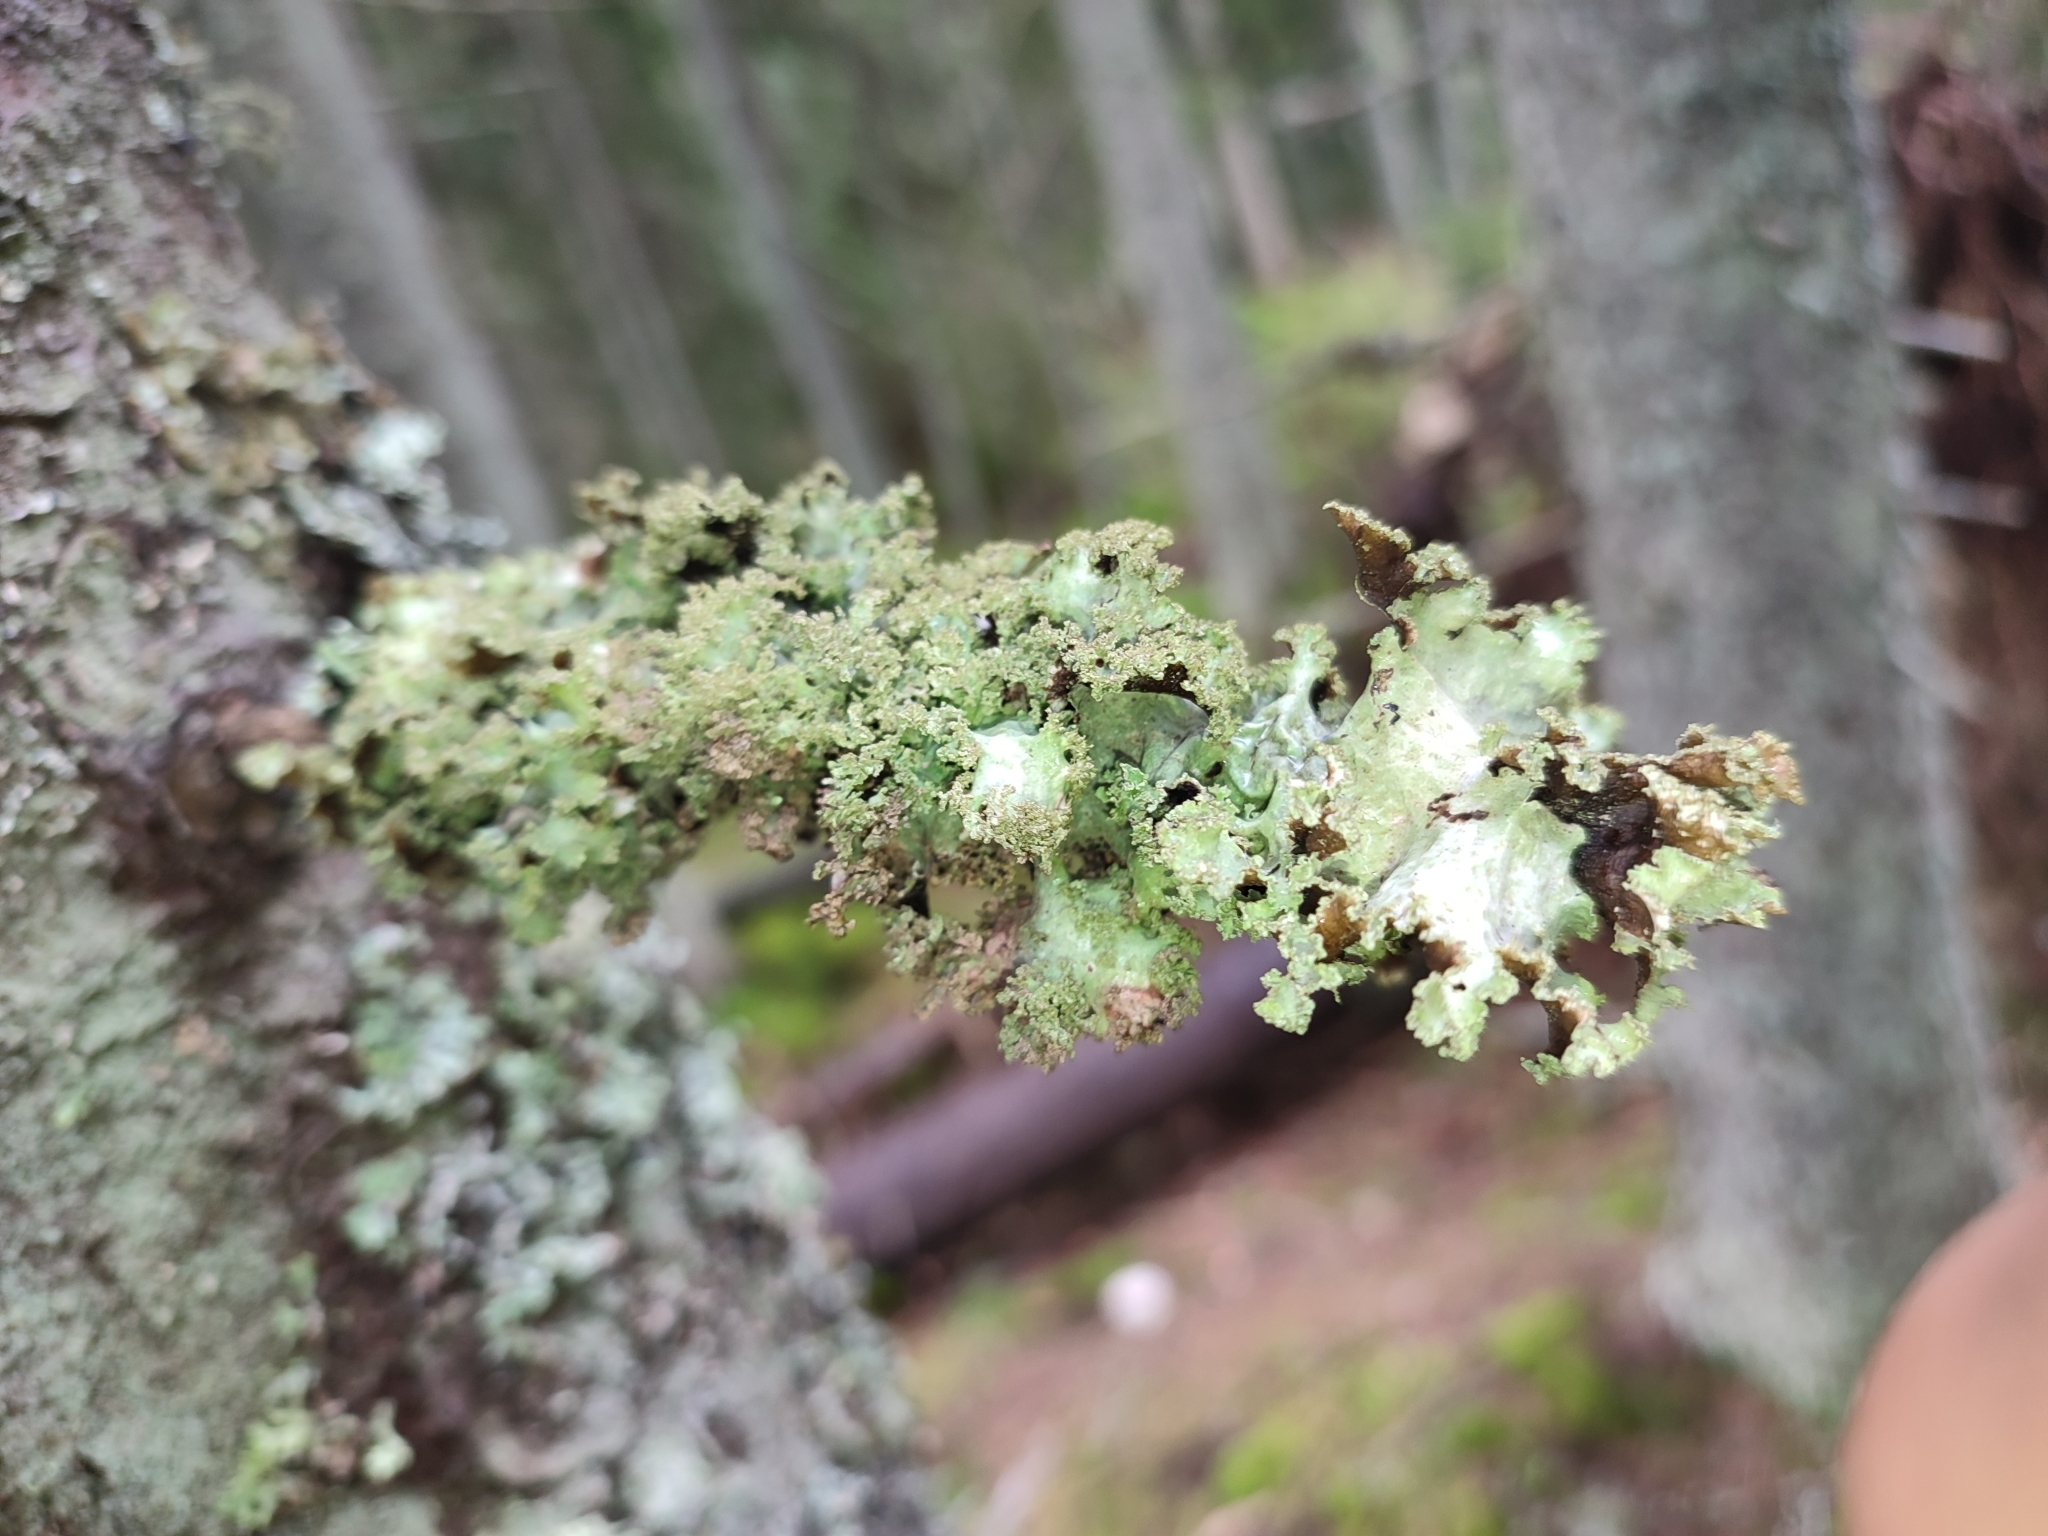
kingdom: Fungi
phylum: Ascomycota
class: Lecanoromycetes
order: Lecanorales
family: Parmeliaceae
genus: Platismatia
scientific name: Platismatia glauca
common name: Varied rag lichen
